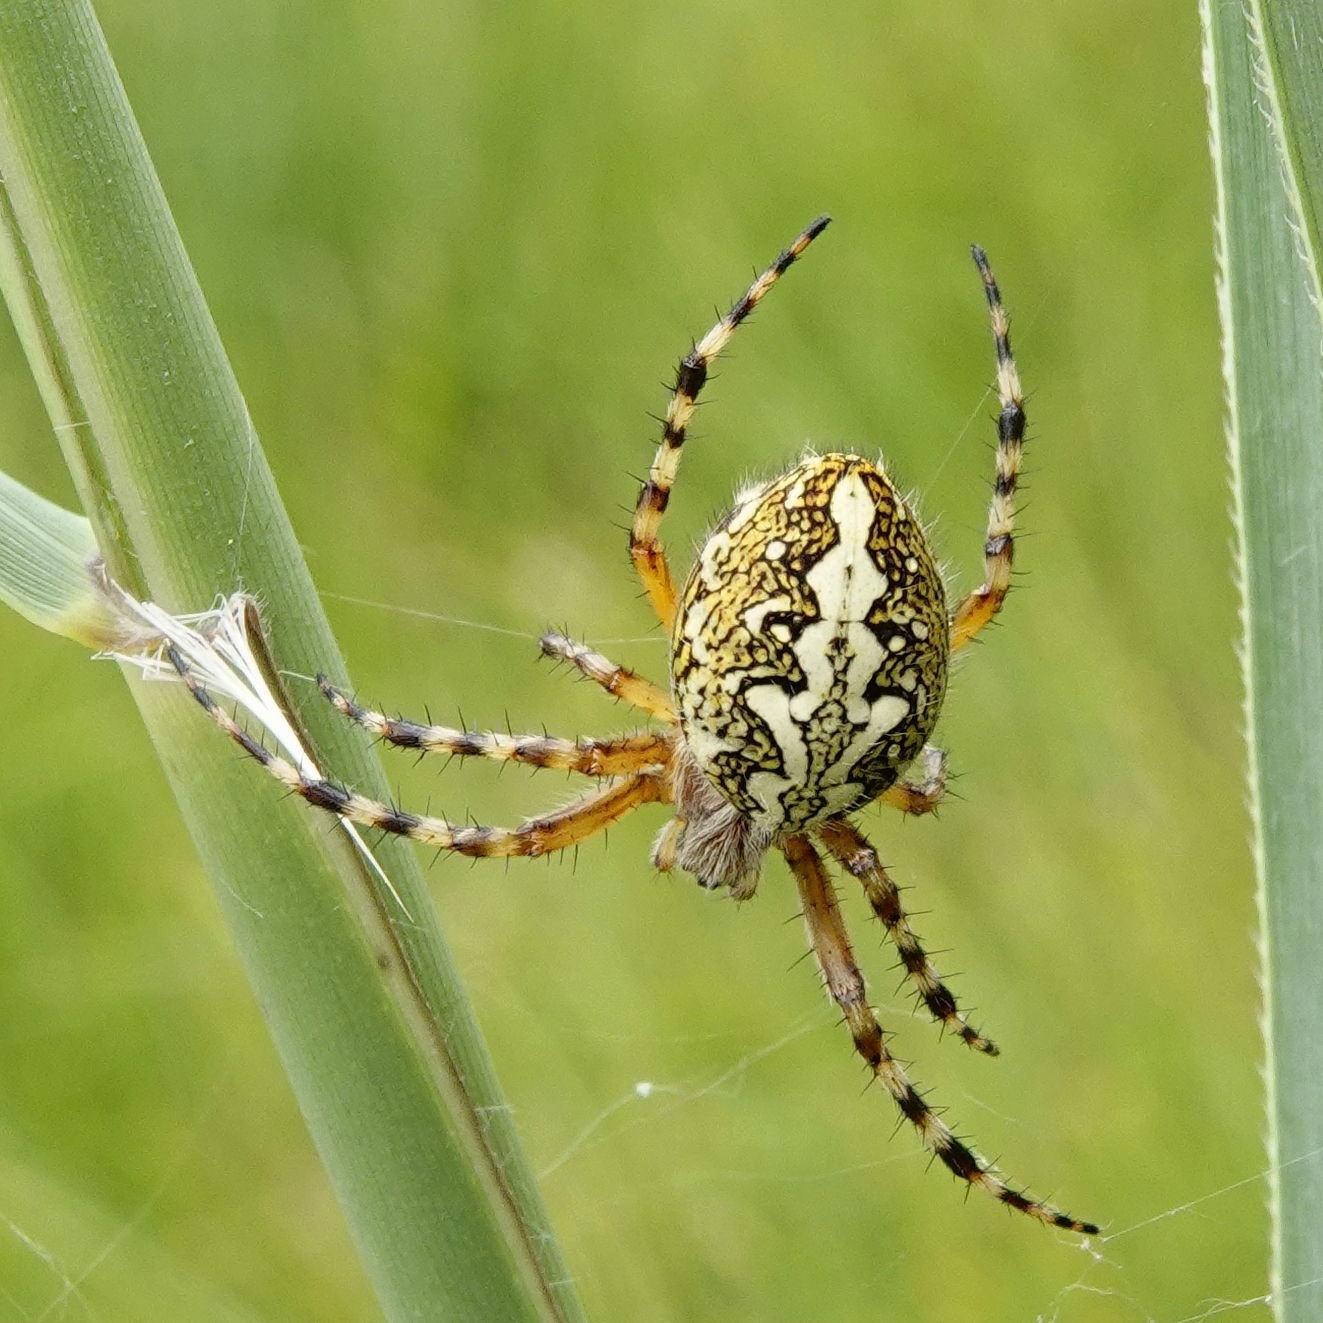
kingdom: Animalia
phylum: Arthropoda
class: Arachnida
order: Araneae
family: Araneidae
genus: Aculepeira
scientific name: Aculepeira ceropegia
